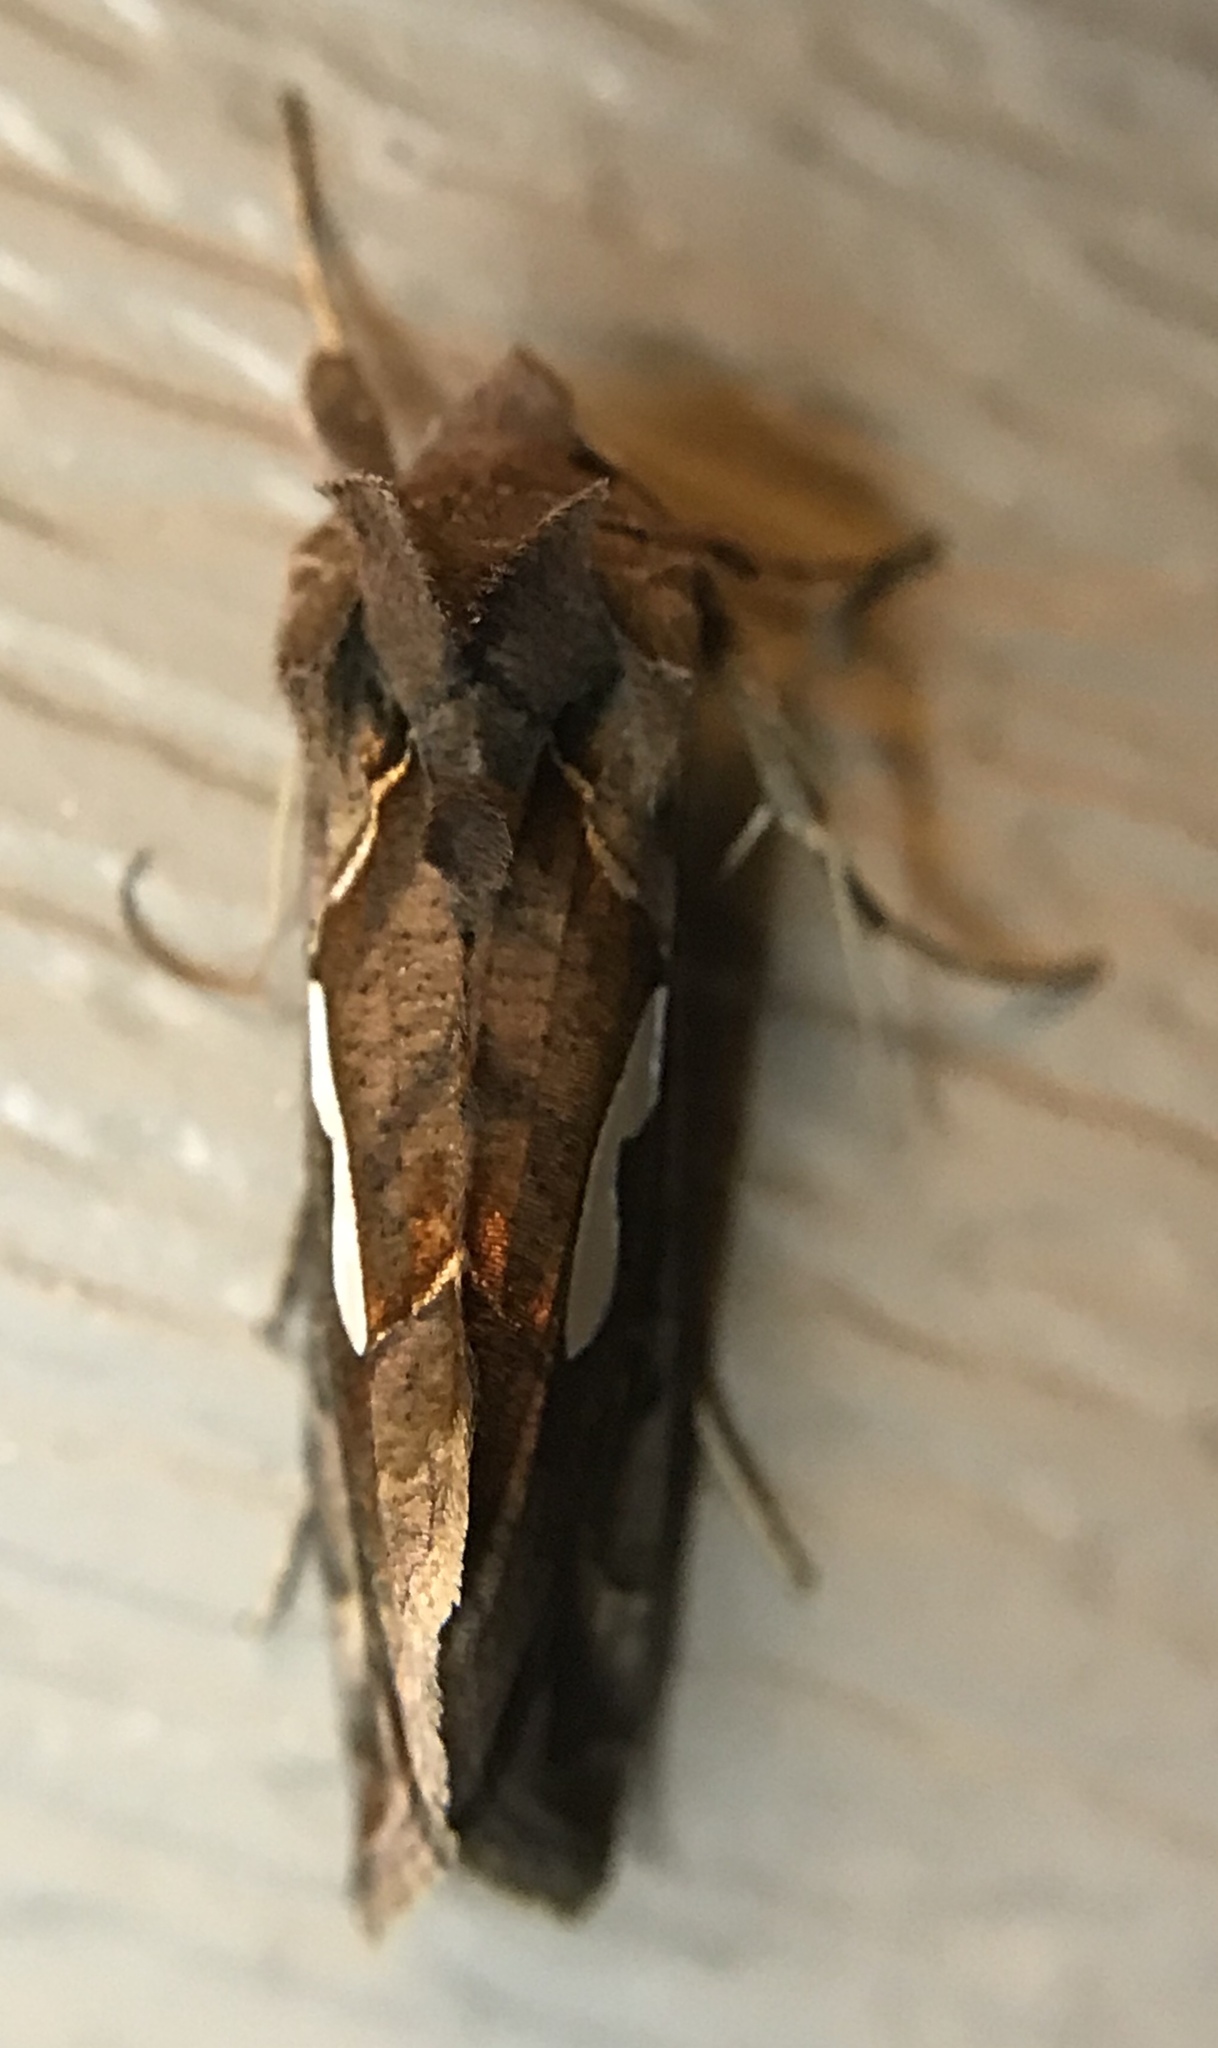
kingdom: Animalia
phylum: Arthropoda
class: Insecta
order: Lepidoptera
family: Noctuidae
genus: Megalographa
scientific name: Megalographa biloba
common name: Cutworm
